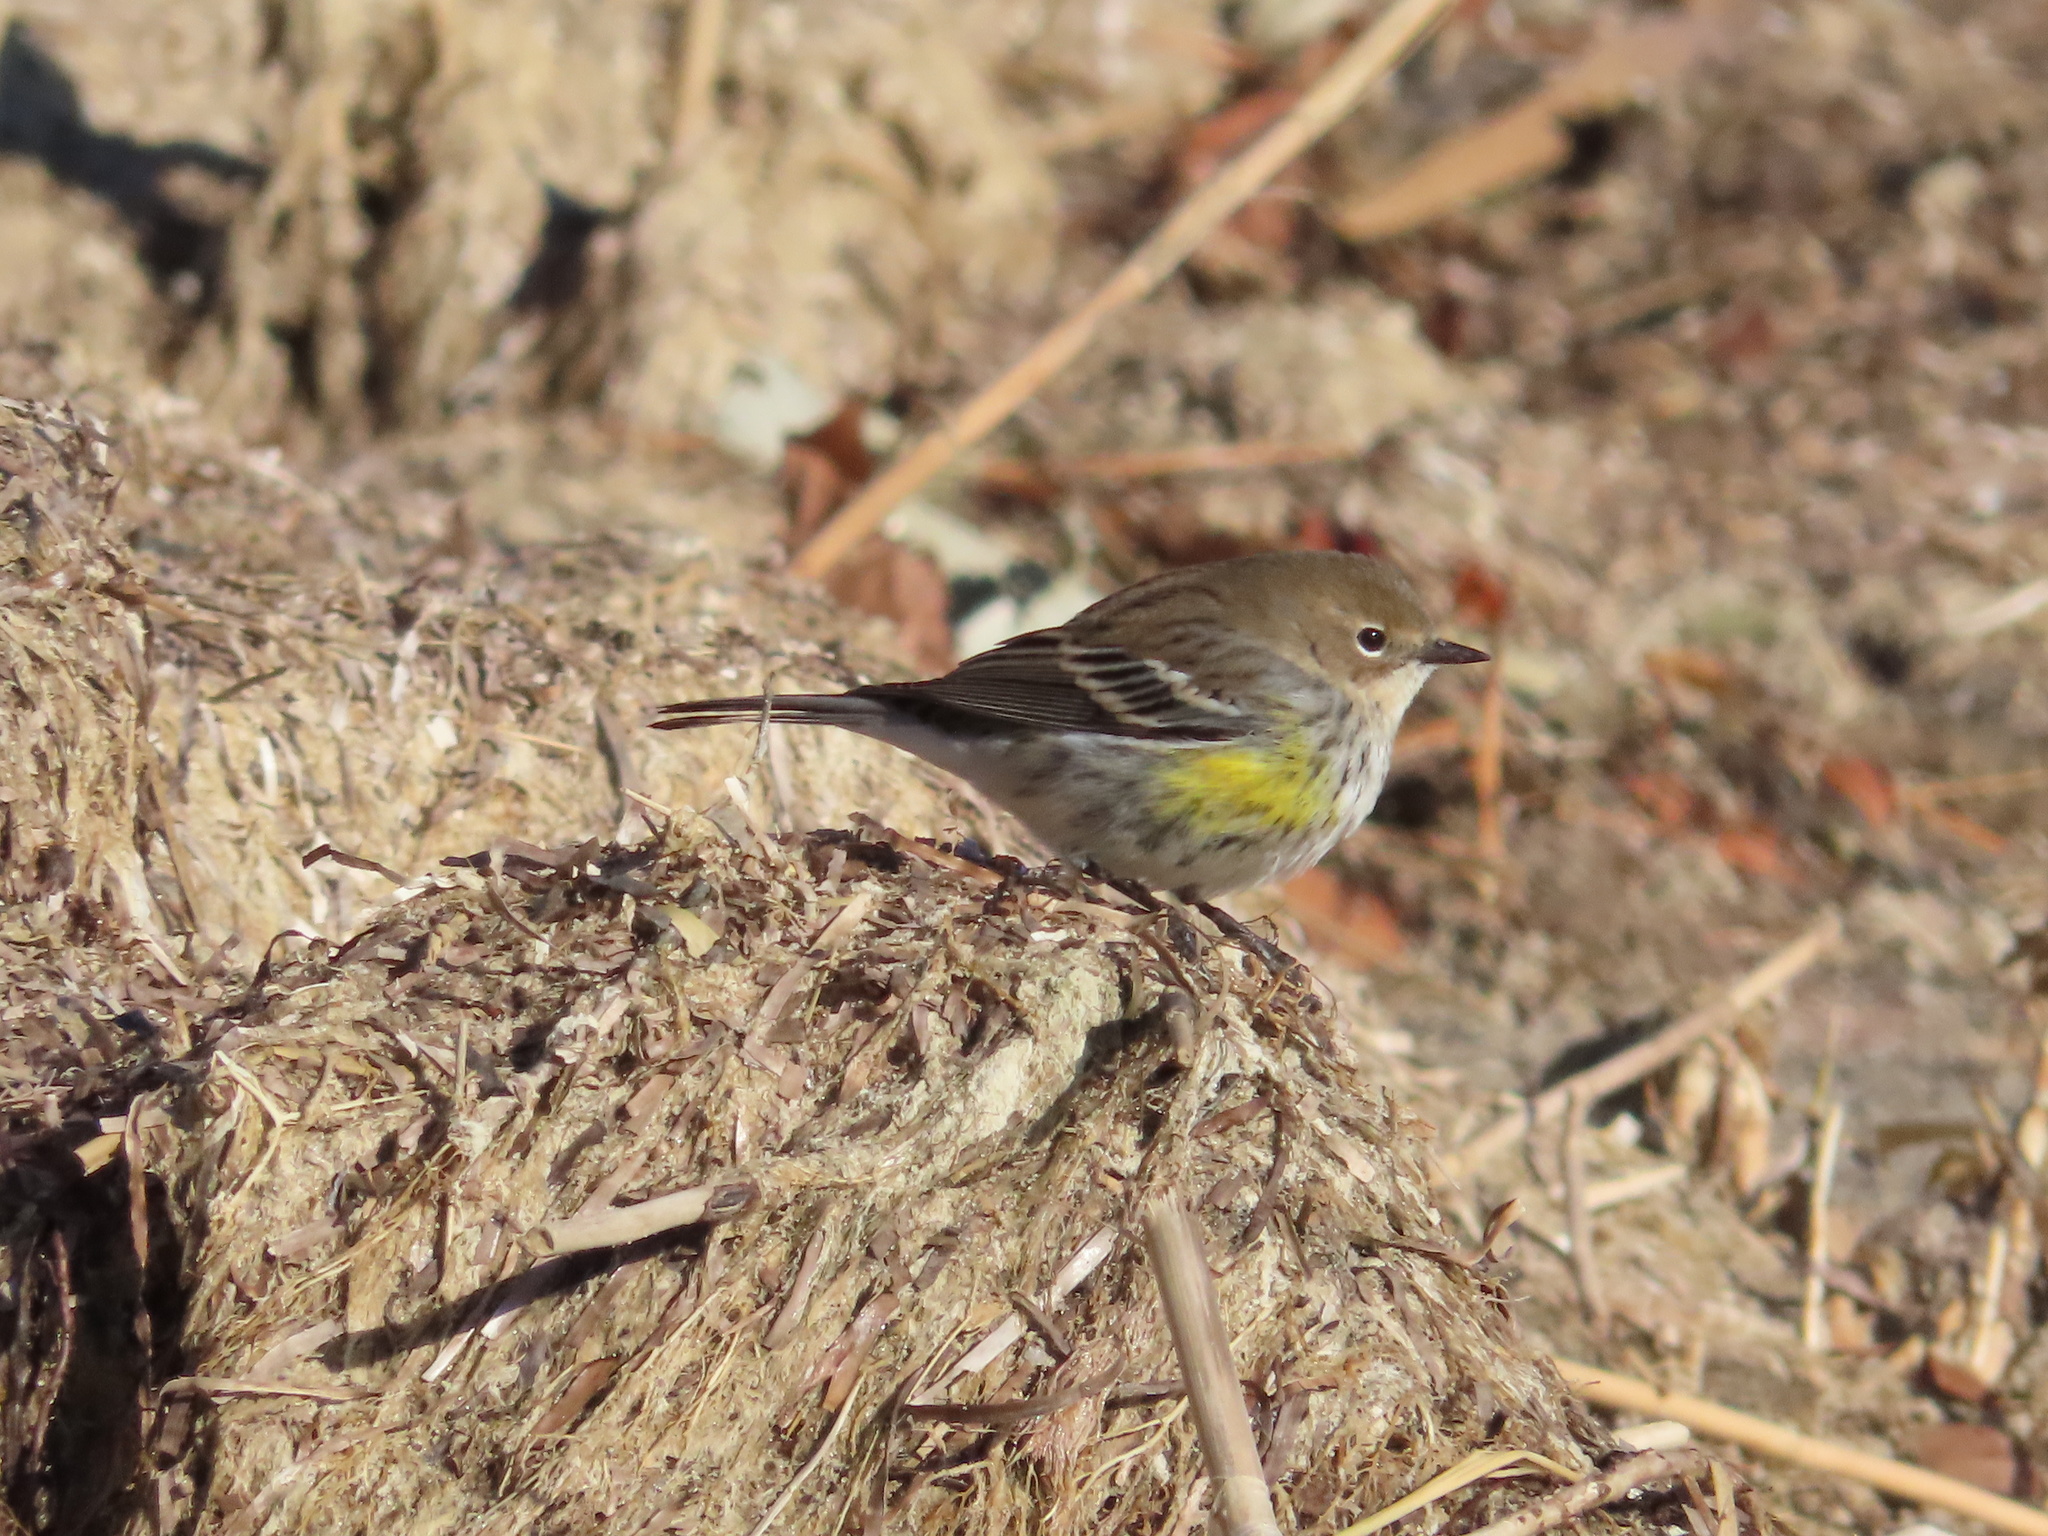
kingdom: Animalia
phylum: Chordata
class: Aves
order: Passeriformes
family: Parulidae
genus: Setophaga
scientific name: Setophaga coronata
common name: Myrtle warbler
